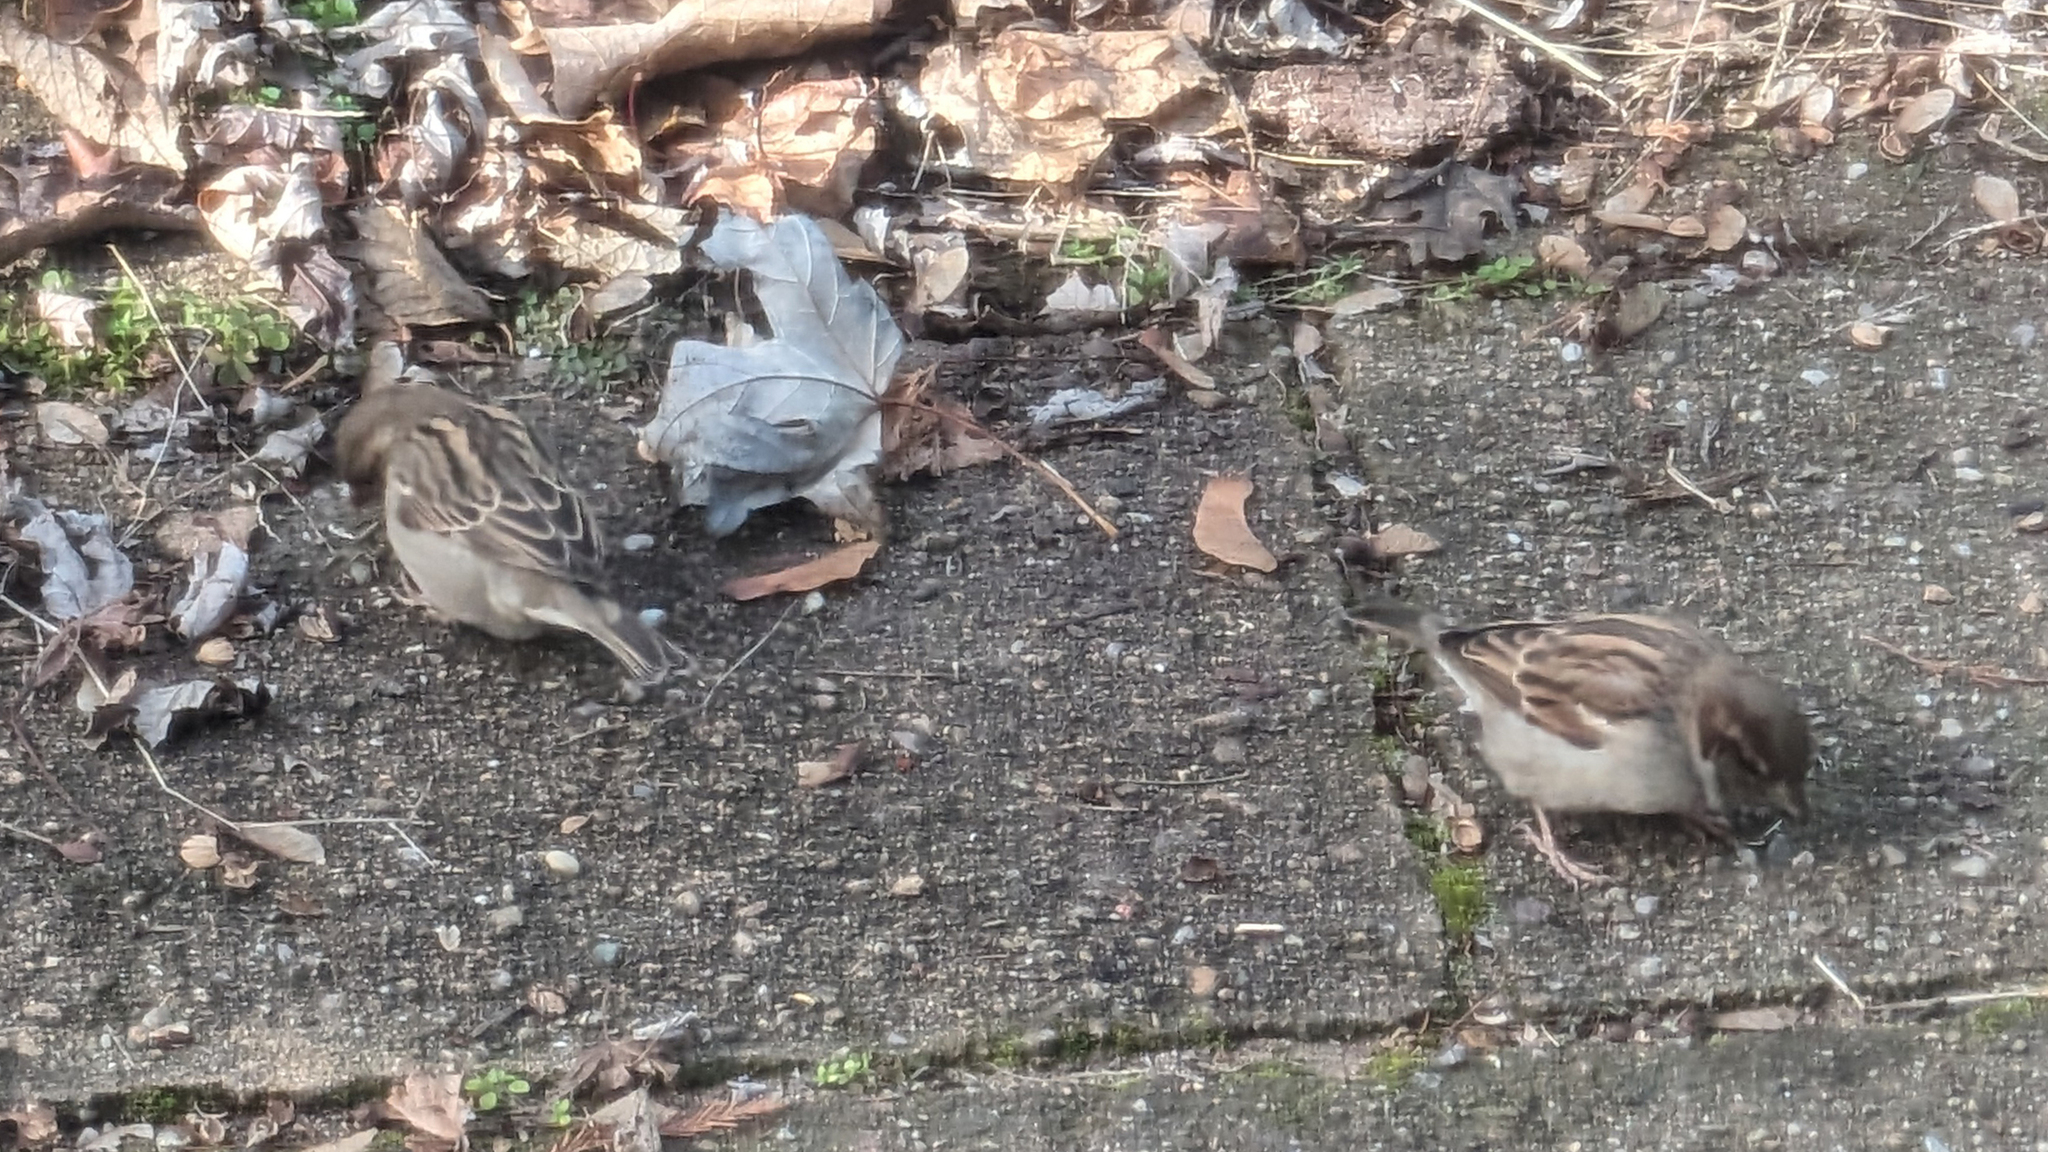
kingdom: Animalia
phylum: Chordata
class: Aves
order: Passeriformes
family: Passeridae
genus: Passer
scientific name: Passer domesticus
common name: House sparrow
